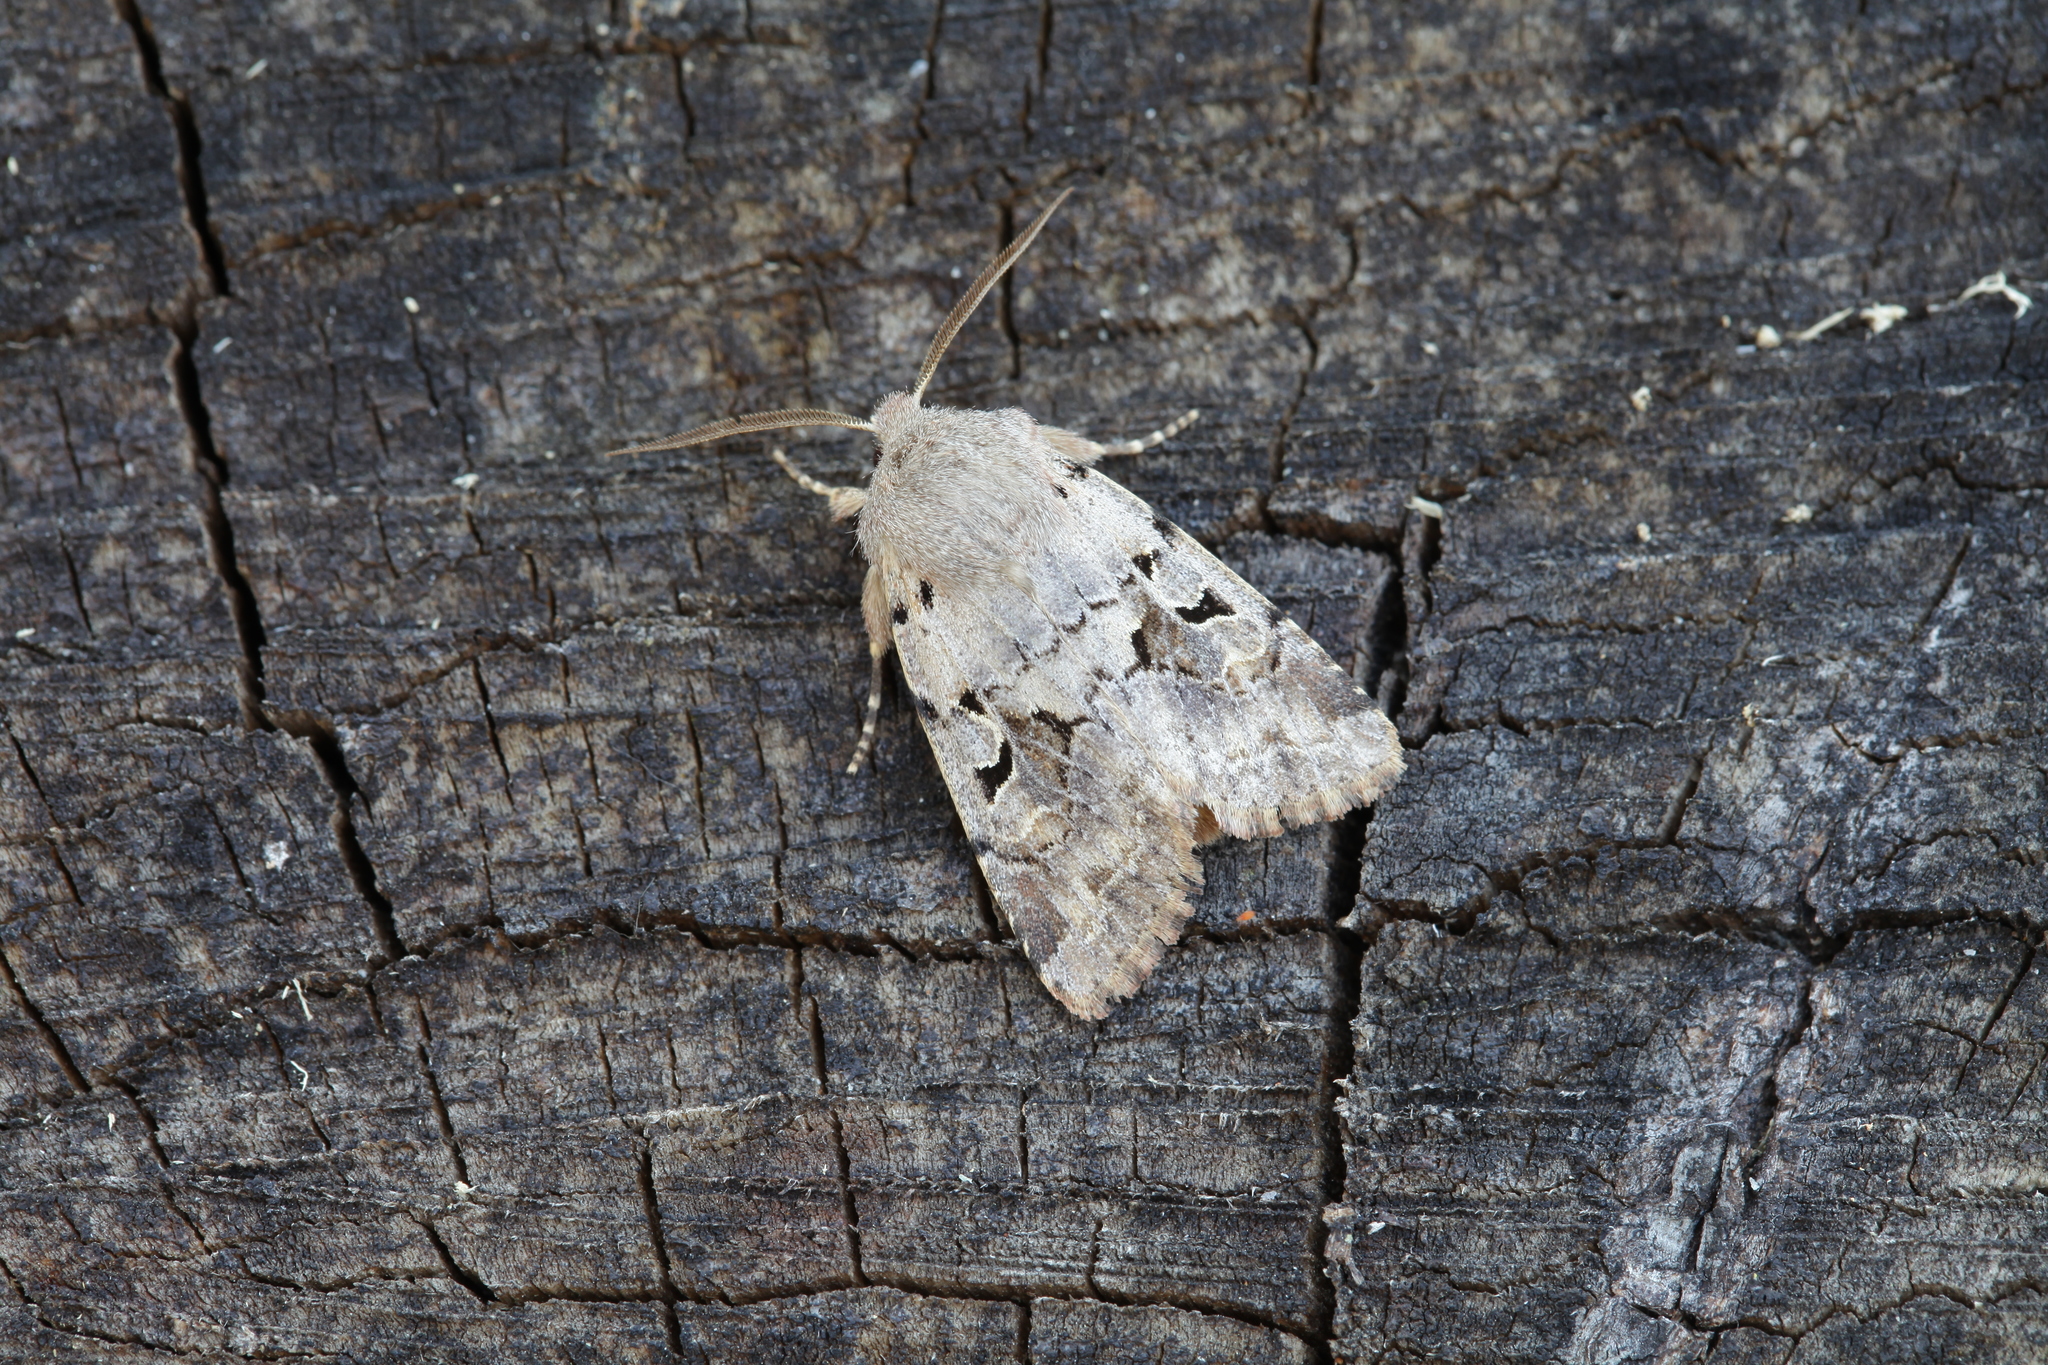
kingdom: Animalia
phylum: Arthropoda
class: Insecta
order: Lepidoptera
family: Noctuidae
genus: Orthosia
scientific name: Orthosia gothica
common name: Hebrew character
